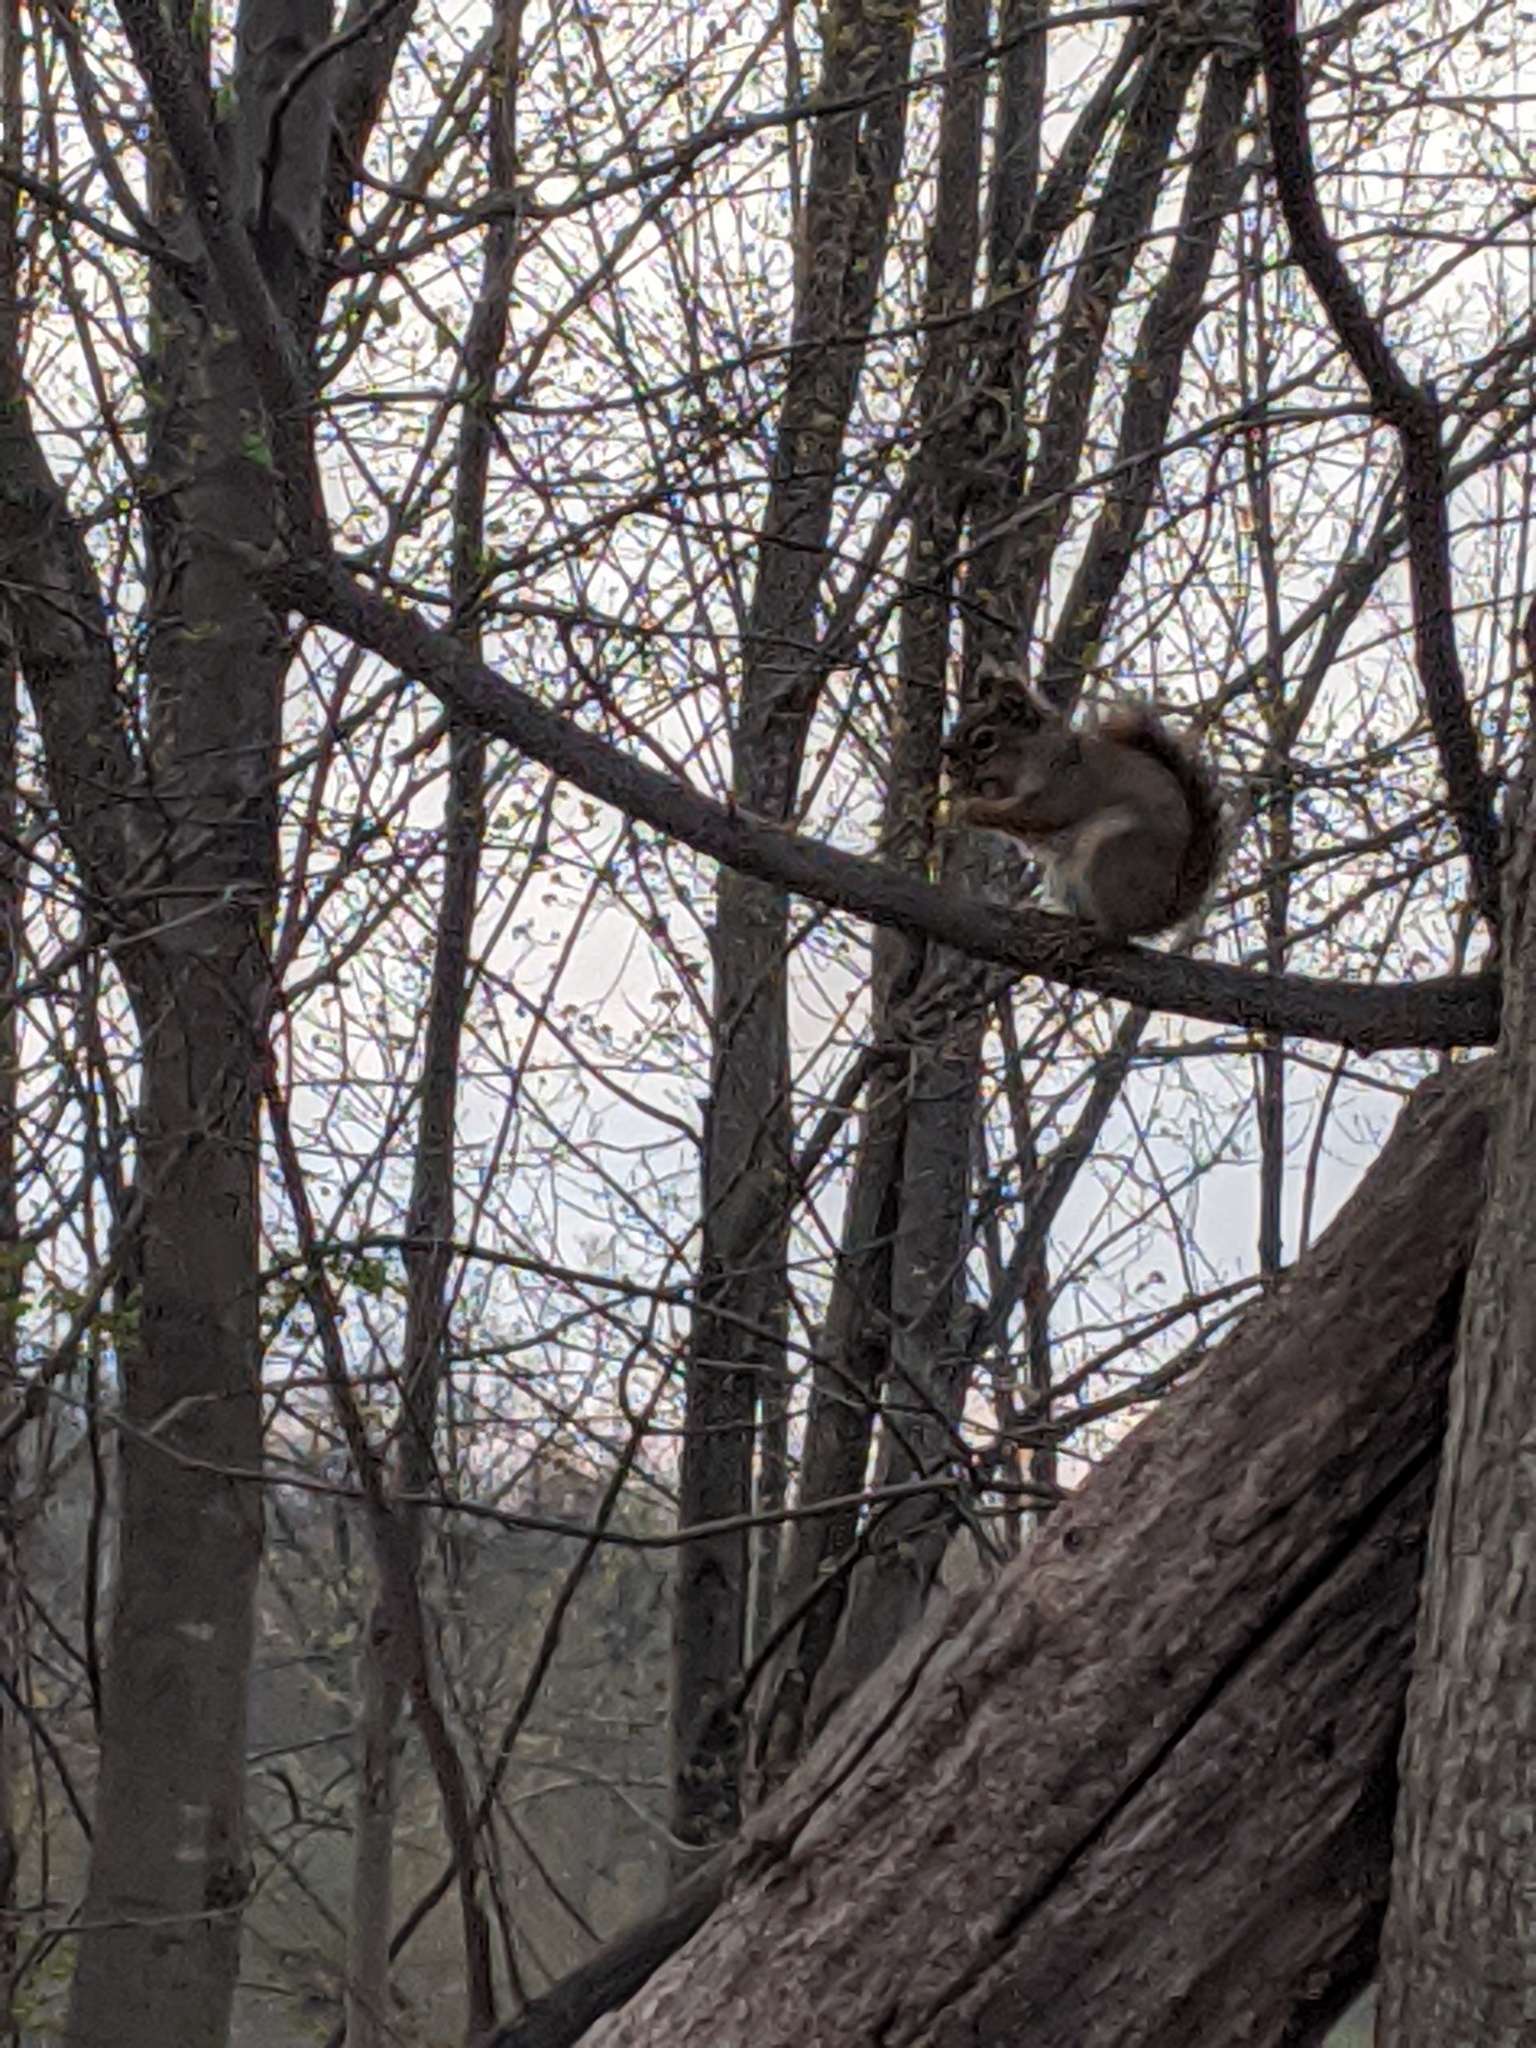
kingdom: Animalia
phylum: Chordata
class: Mammalia
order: Rodentia
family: Sciuridae
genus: Tamiasciurus
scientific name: Tamiasciurus hudsonicus
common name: Red squirrel
